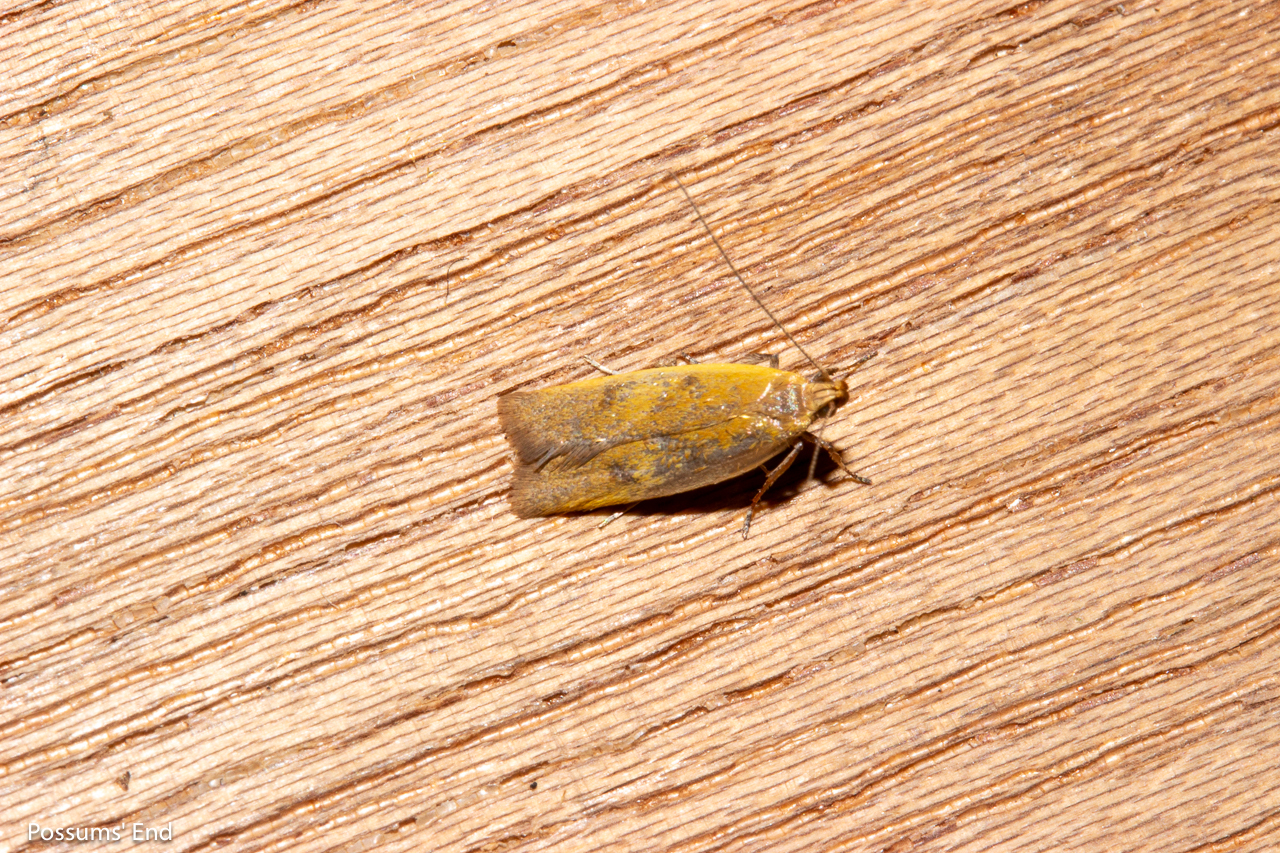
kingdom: Animalia
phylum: Arthropoda
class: Insecta
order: Lepidoptera
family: Oecophoridae
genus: Gymnobathra
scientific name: Gymnobathra parca
